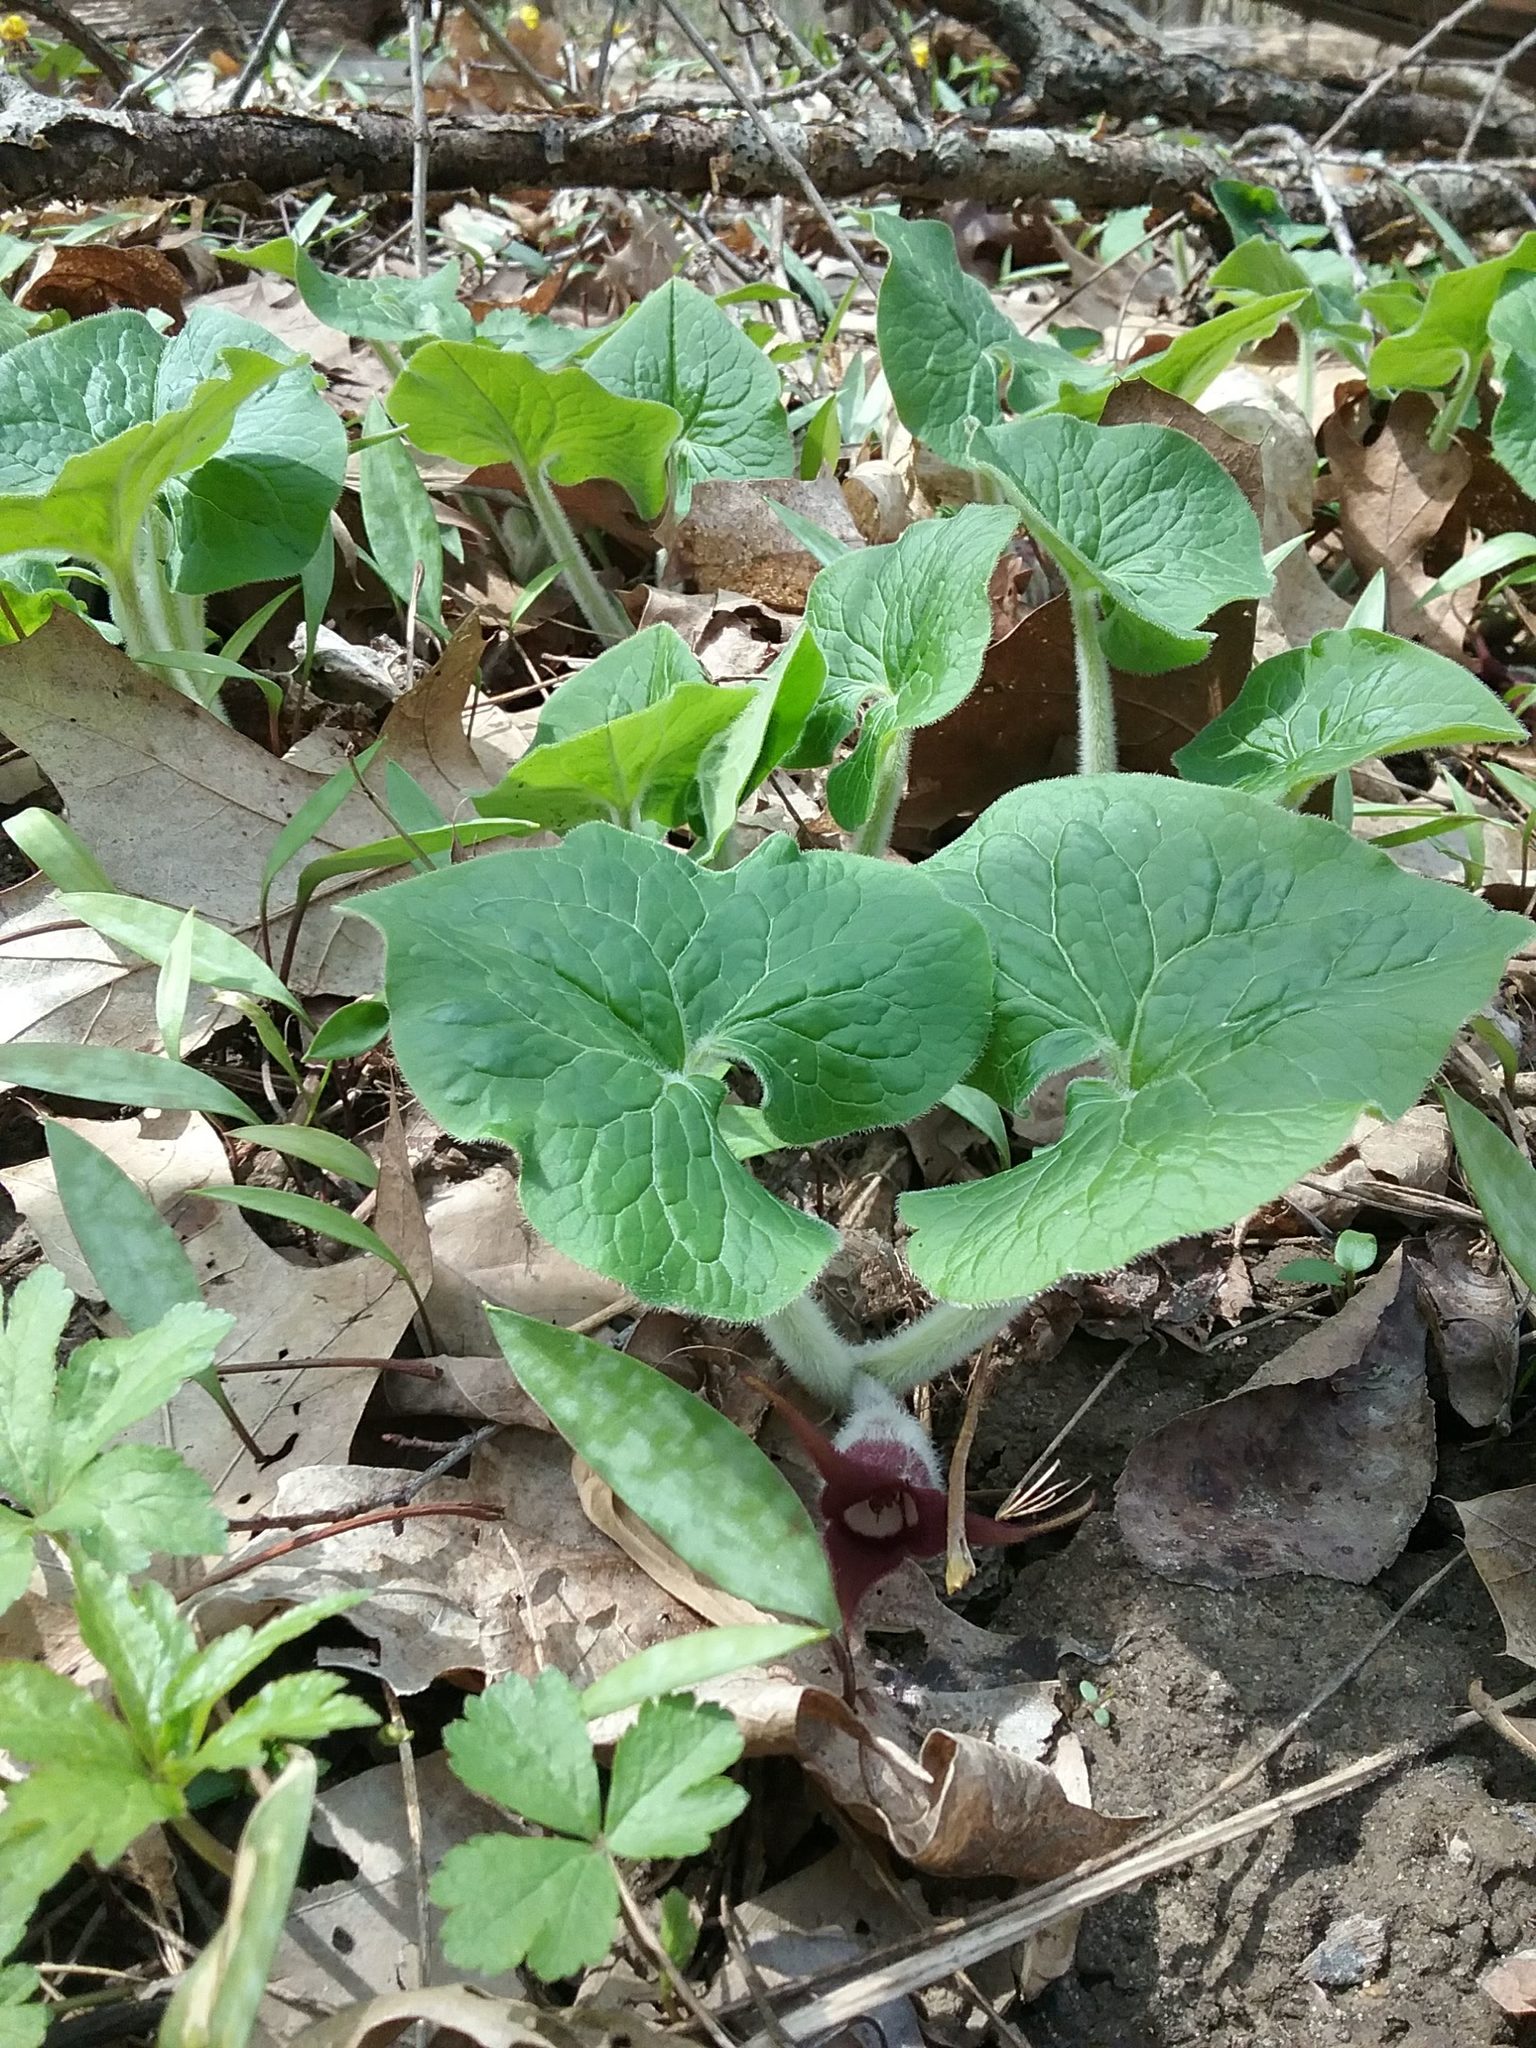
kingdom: Plantae
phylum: Tracheophyta
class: Magnoliopsida
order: Piperales
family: Aristolochiaceae
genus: Asarum
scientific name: Asarum canadense
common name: Wild ginger
